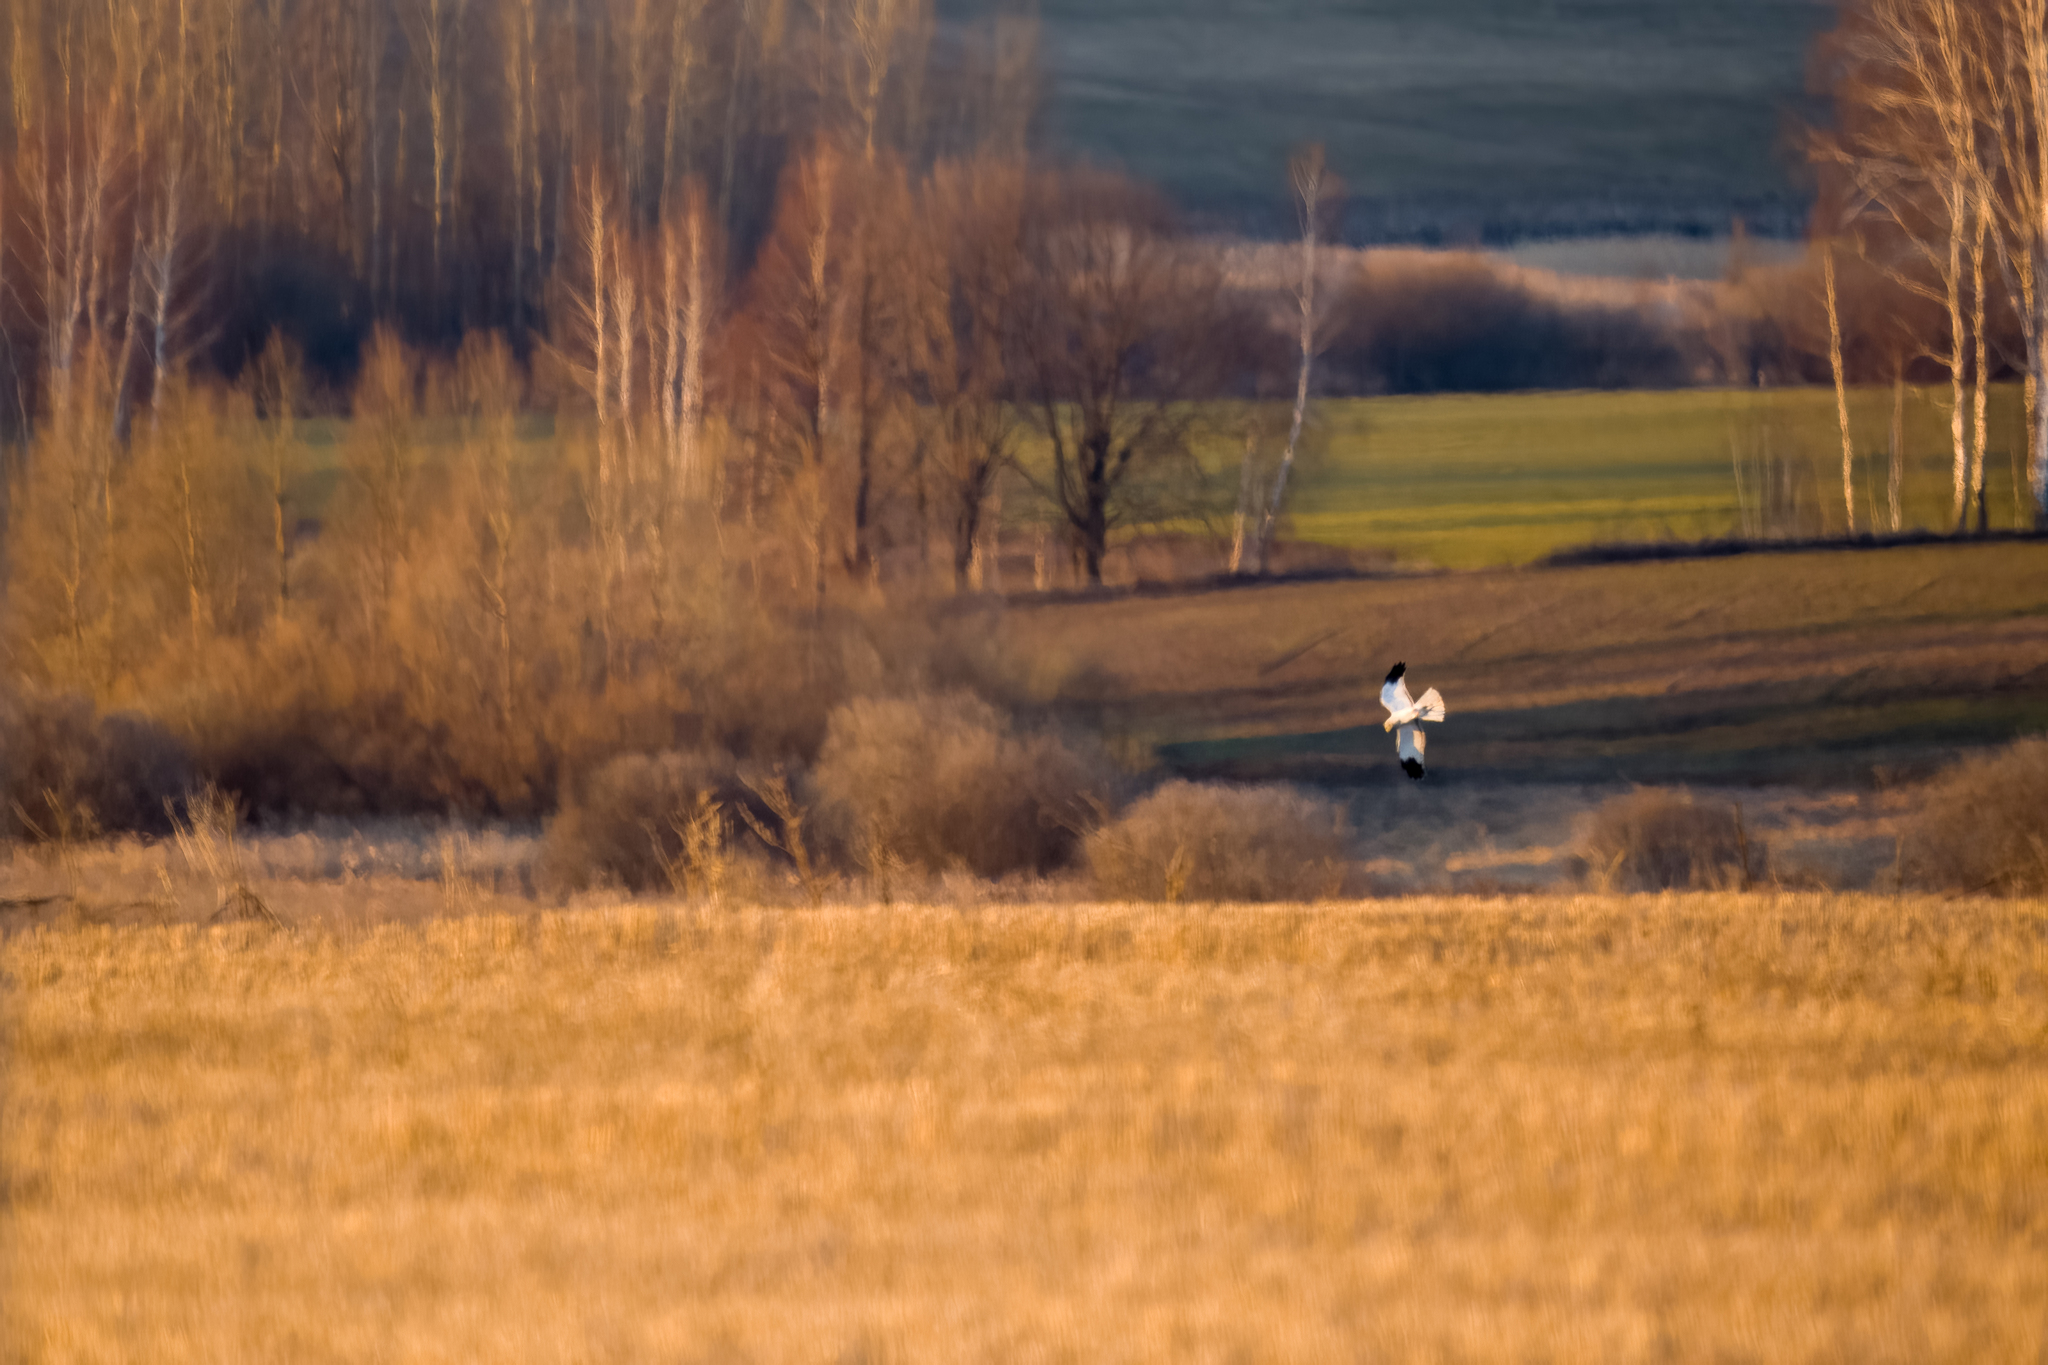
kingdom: Animalia
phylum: Chordata
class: Aves
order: Accipitriformes
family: Accipitridae
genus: Circus
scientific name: Circus cyaneus
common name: Hen harrier
